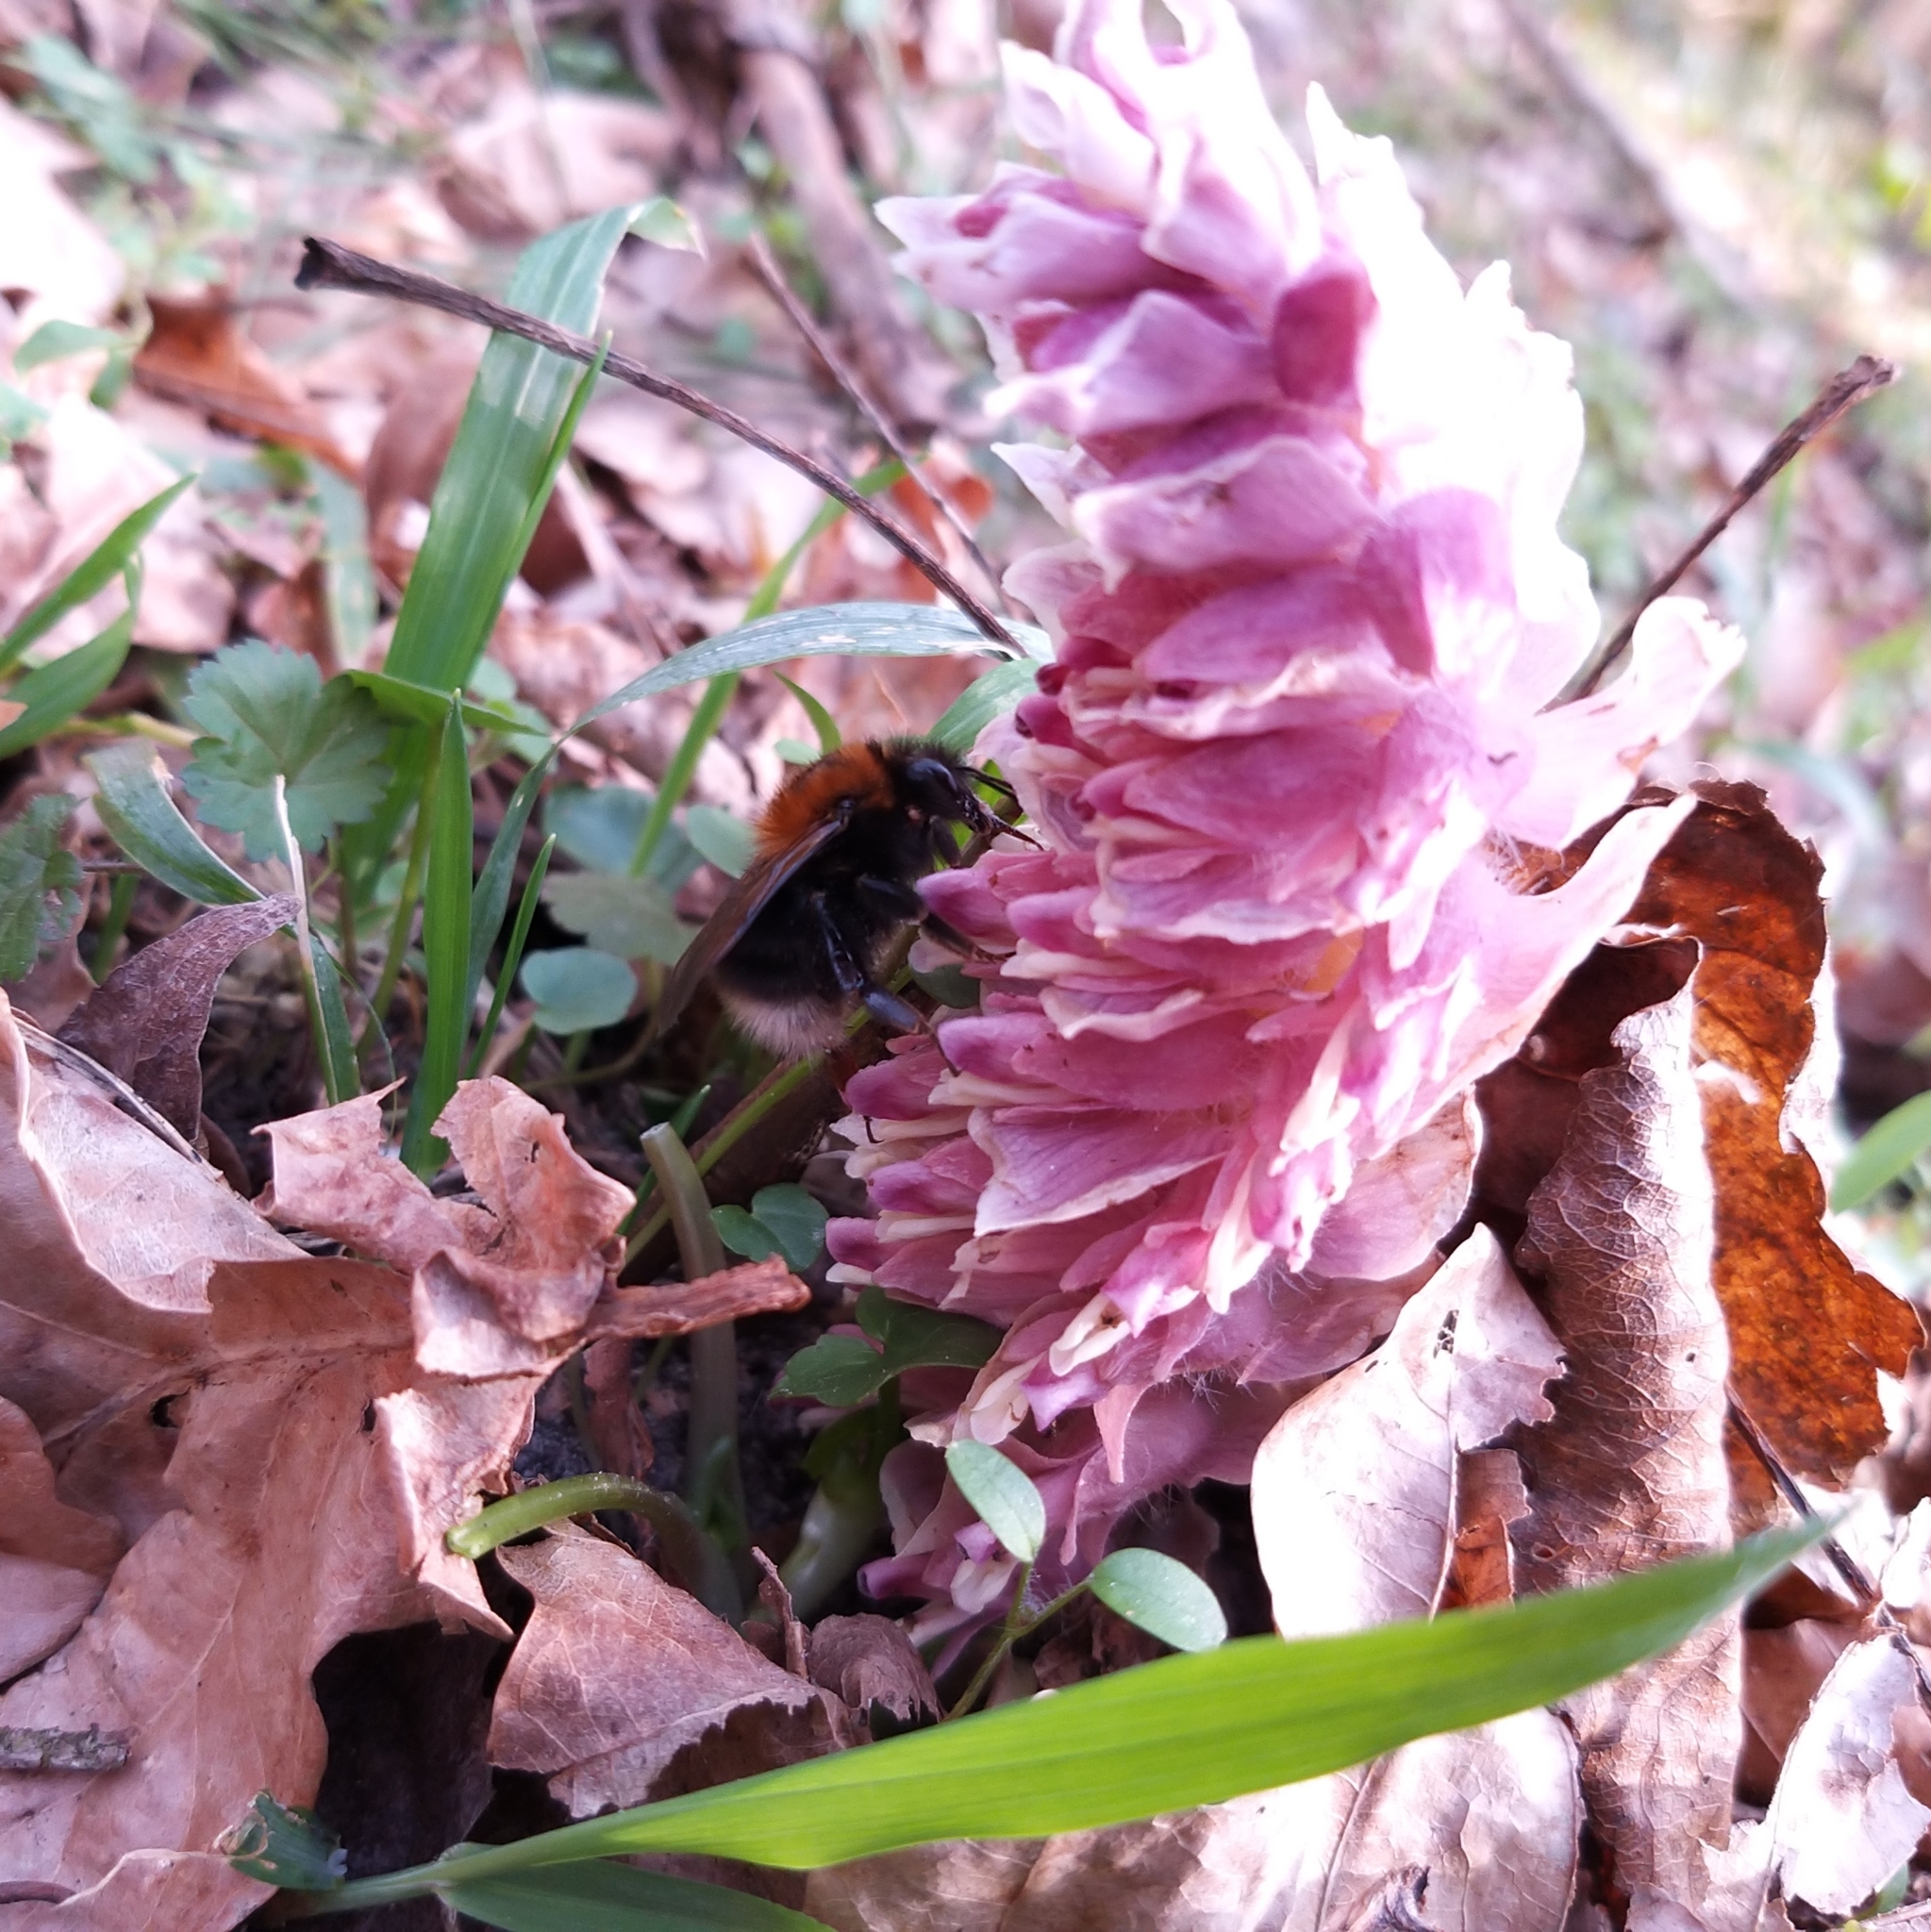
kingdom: Plantae
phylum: Tracheophyta
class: Magnoliopsida
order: Lamiales
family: Orobanchaceae
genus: Lathraea
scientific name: Lathraea squamaria
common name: Toothwort
